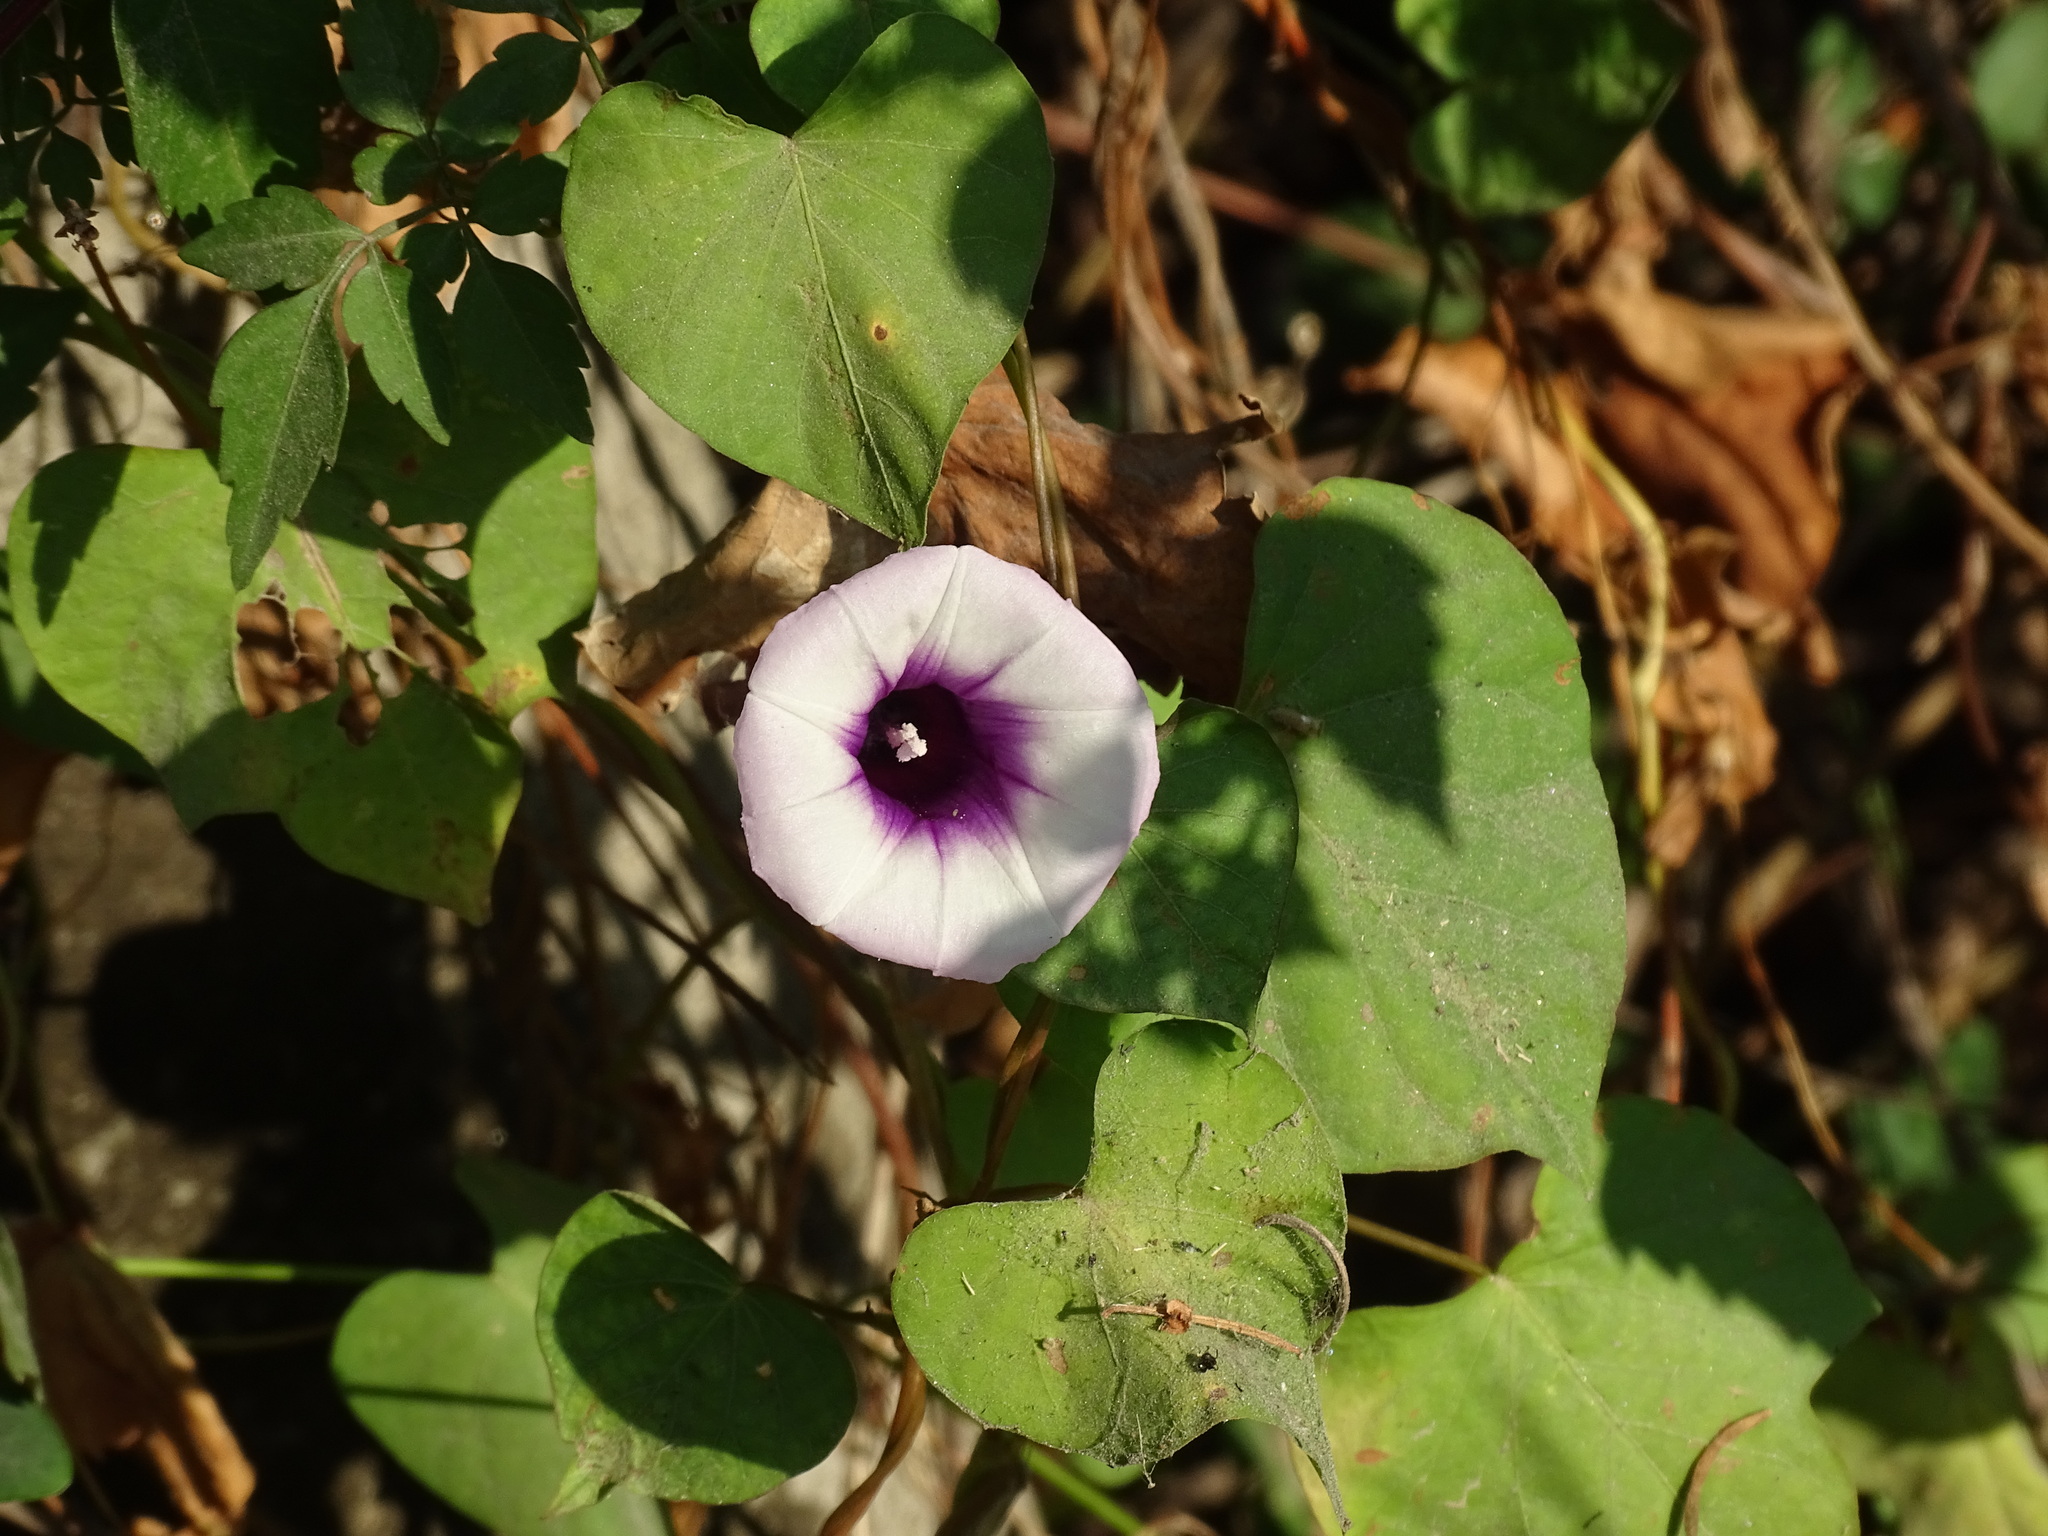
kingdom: Plantae
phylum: Tracheophyta
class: Magnoliopsida
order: Solanales
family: Convolvulaceae
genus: Ipomoea
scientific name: Ipomoea batatas
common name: Sweet-potato
